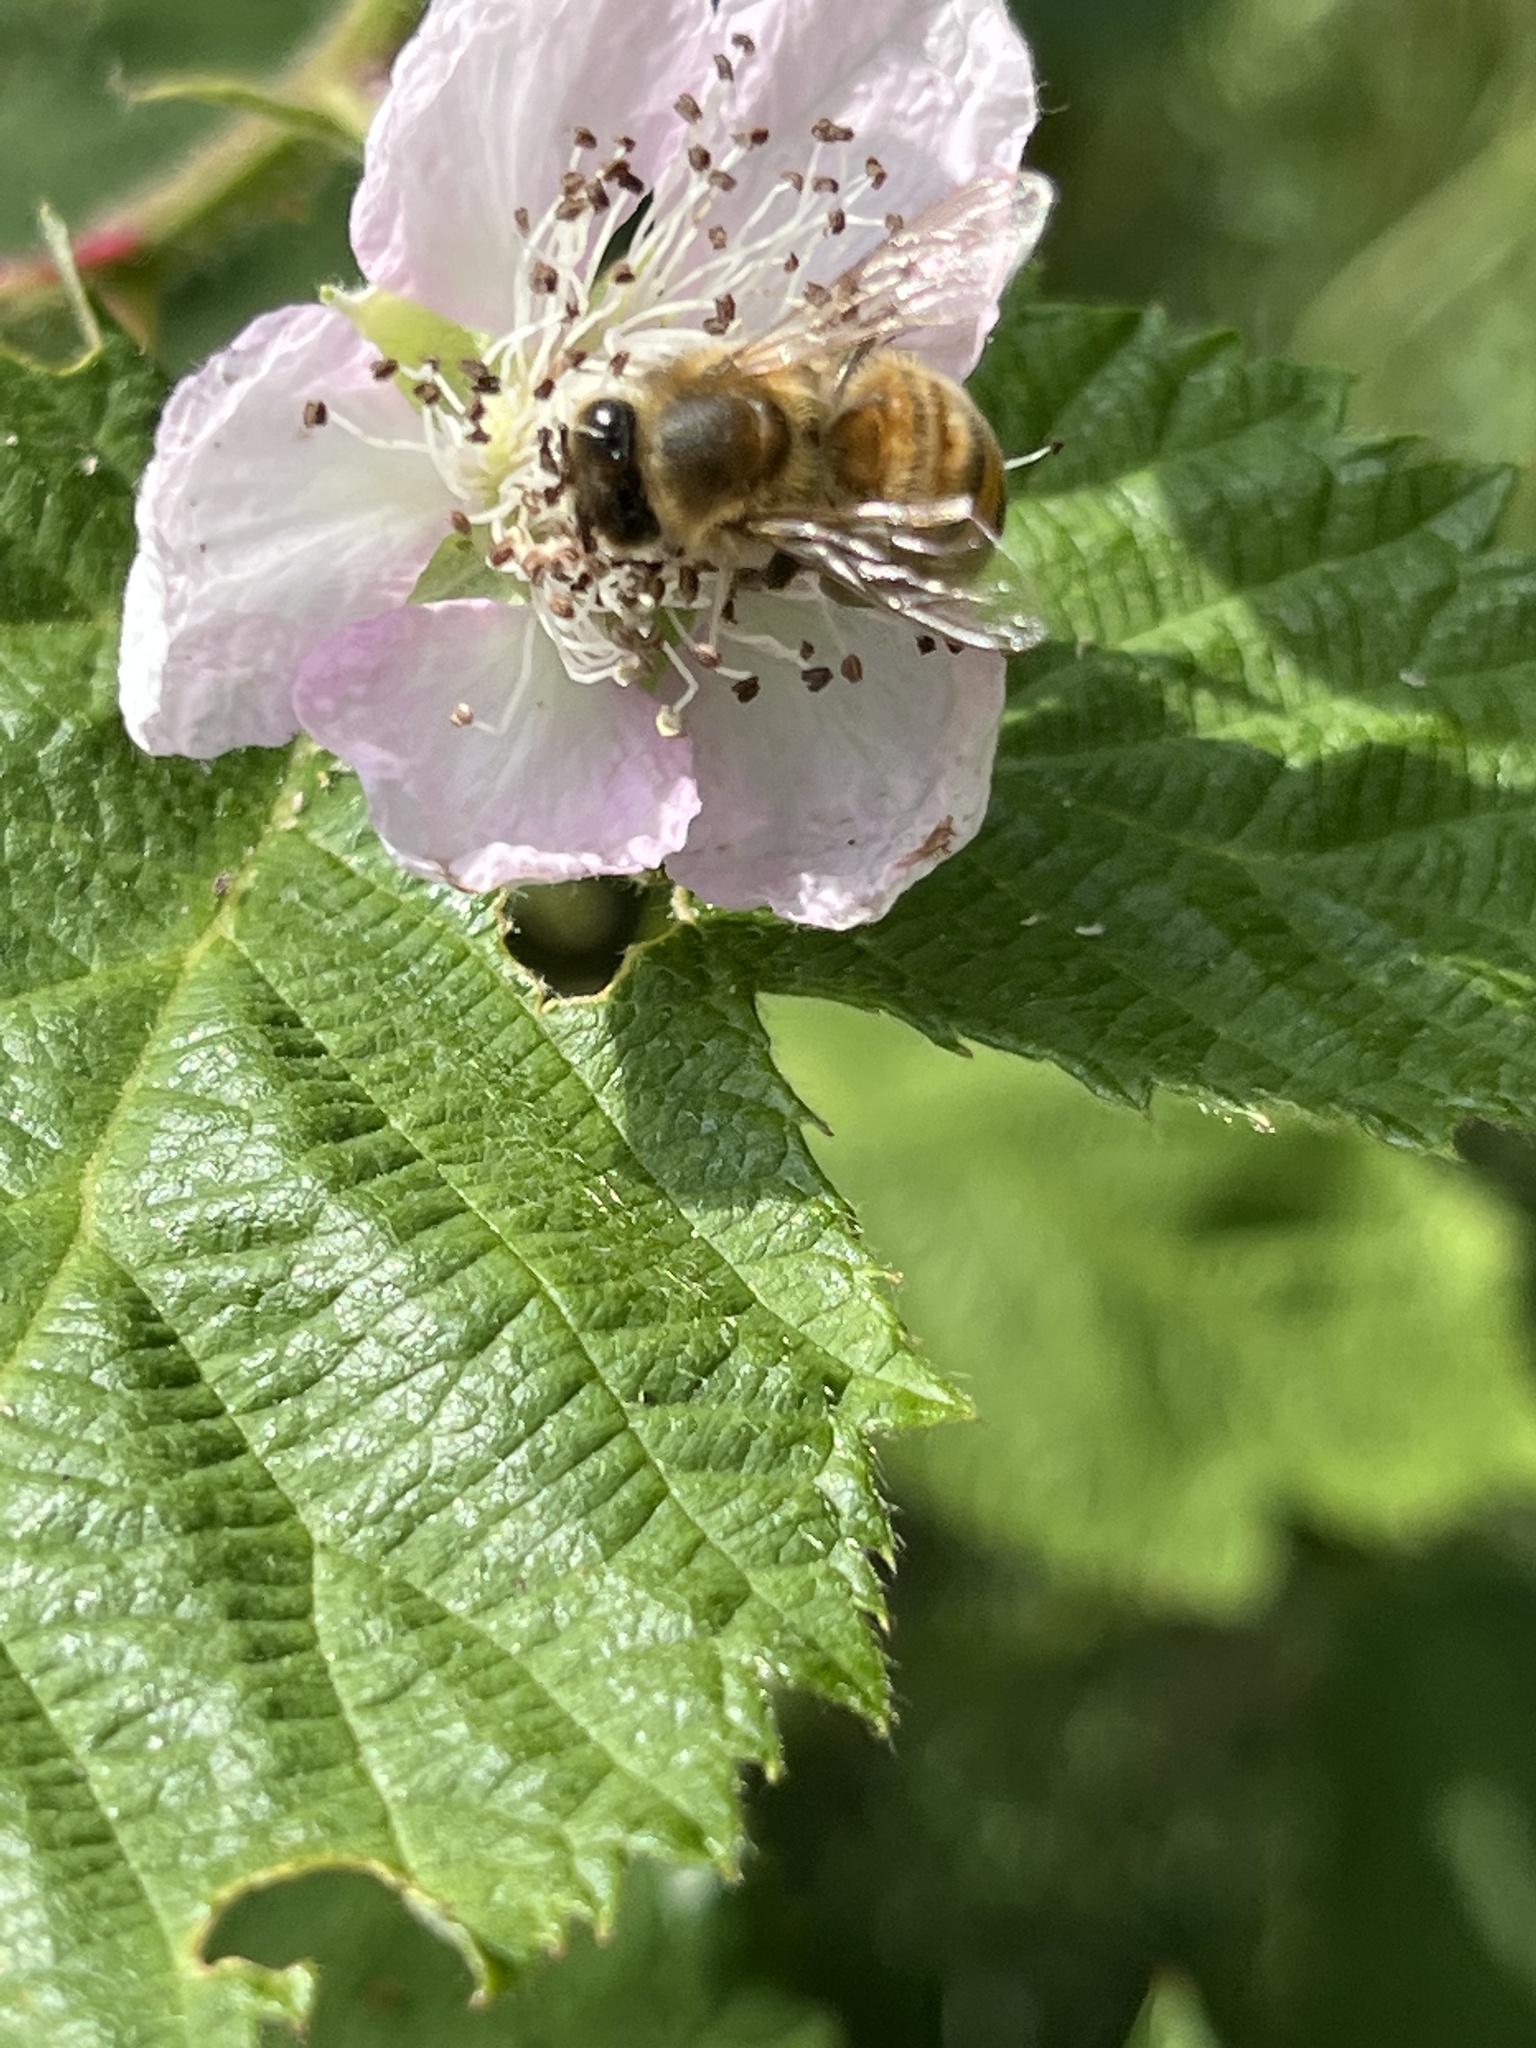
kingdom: Animalia
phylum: Arthropoda
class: Insecta
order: Hymenoptera
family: Apidae
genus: Apis
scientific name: Apis mellifera
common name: Honey bee
